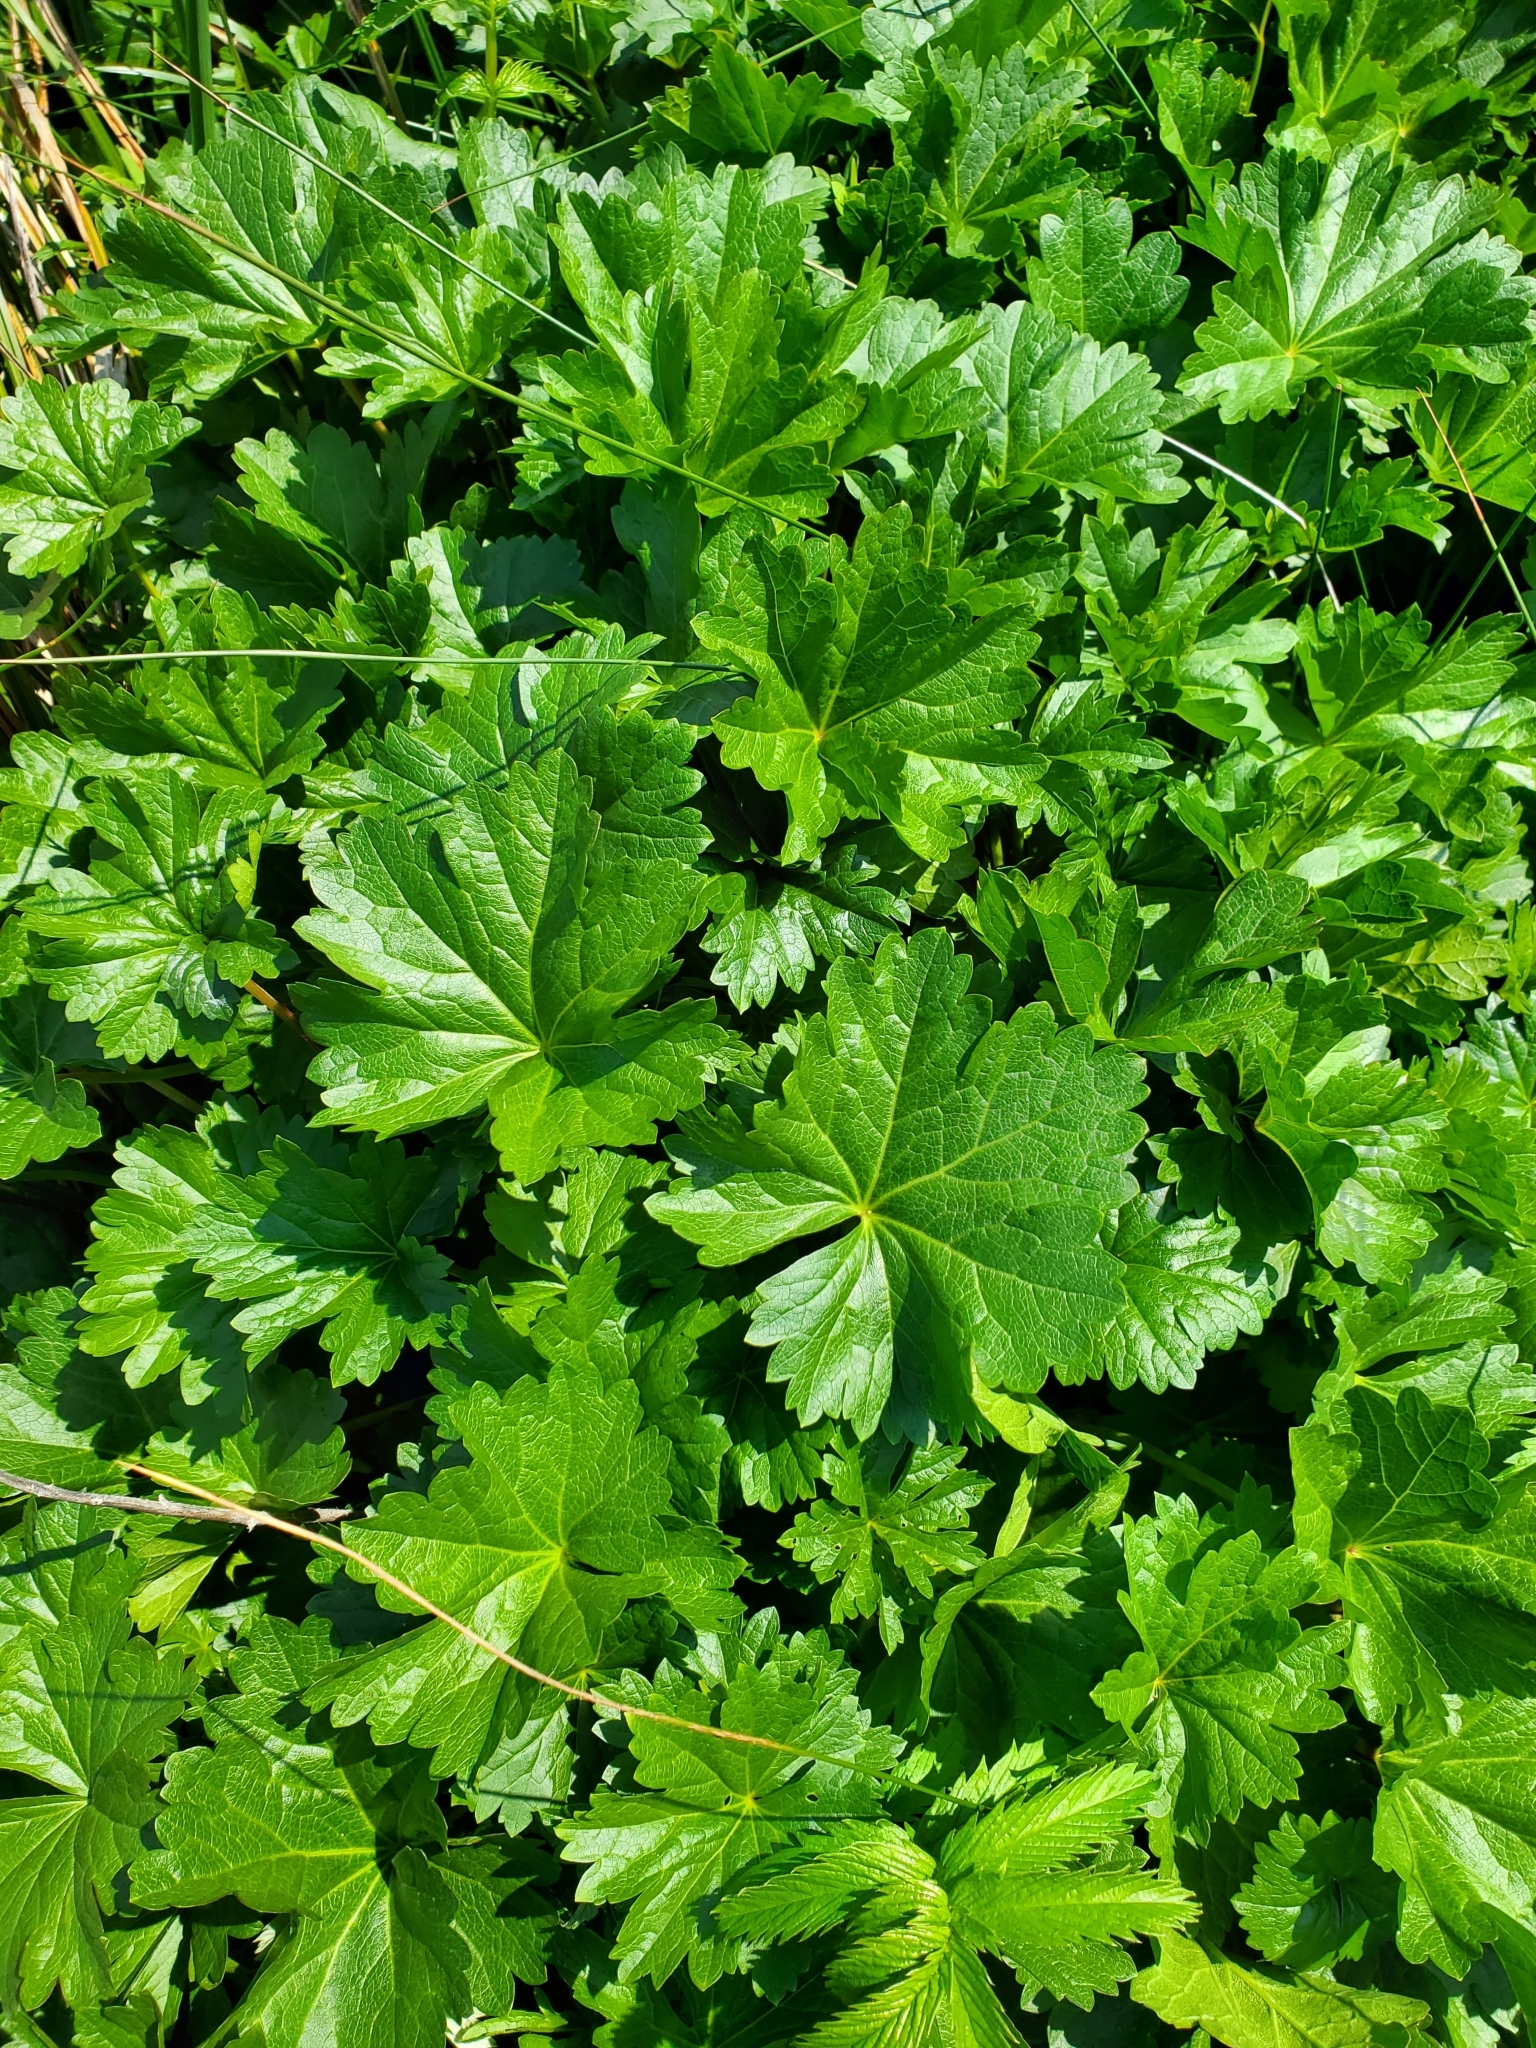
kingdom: Plantae
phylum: Tracheophyta
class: Magnoliopsida
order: Malvales
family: Malvaceae
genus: Sidalcea
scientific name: Sidalcea hendersonii
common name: Mallow
